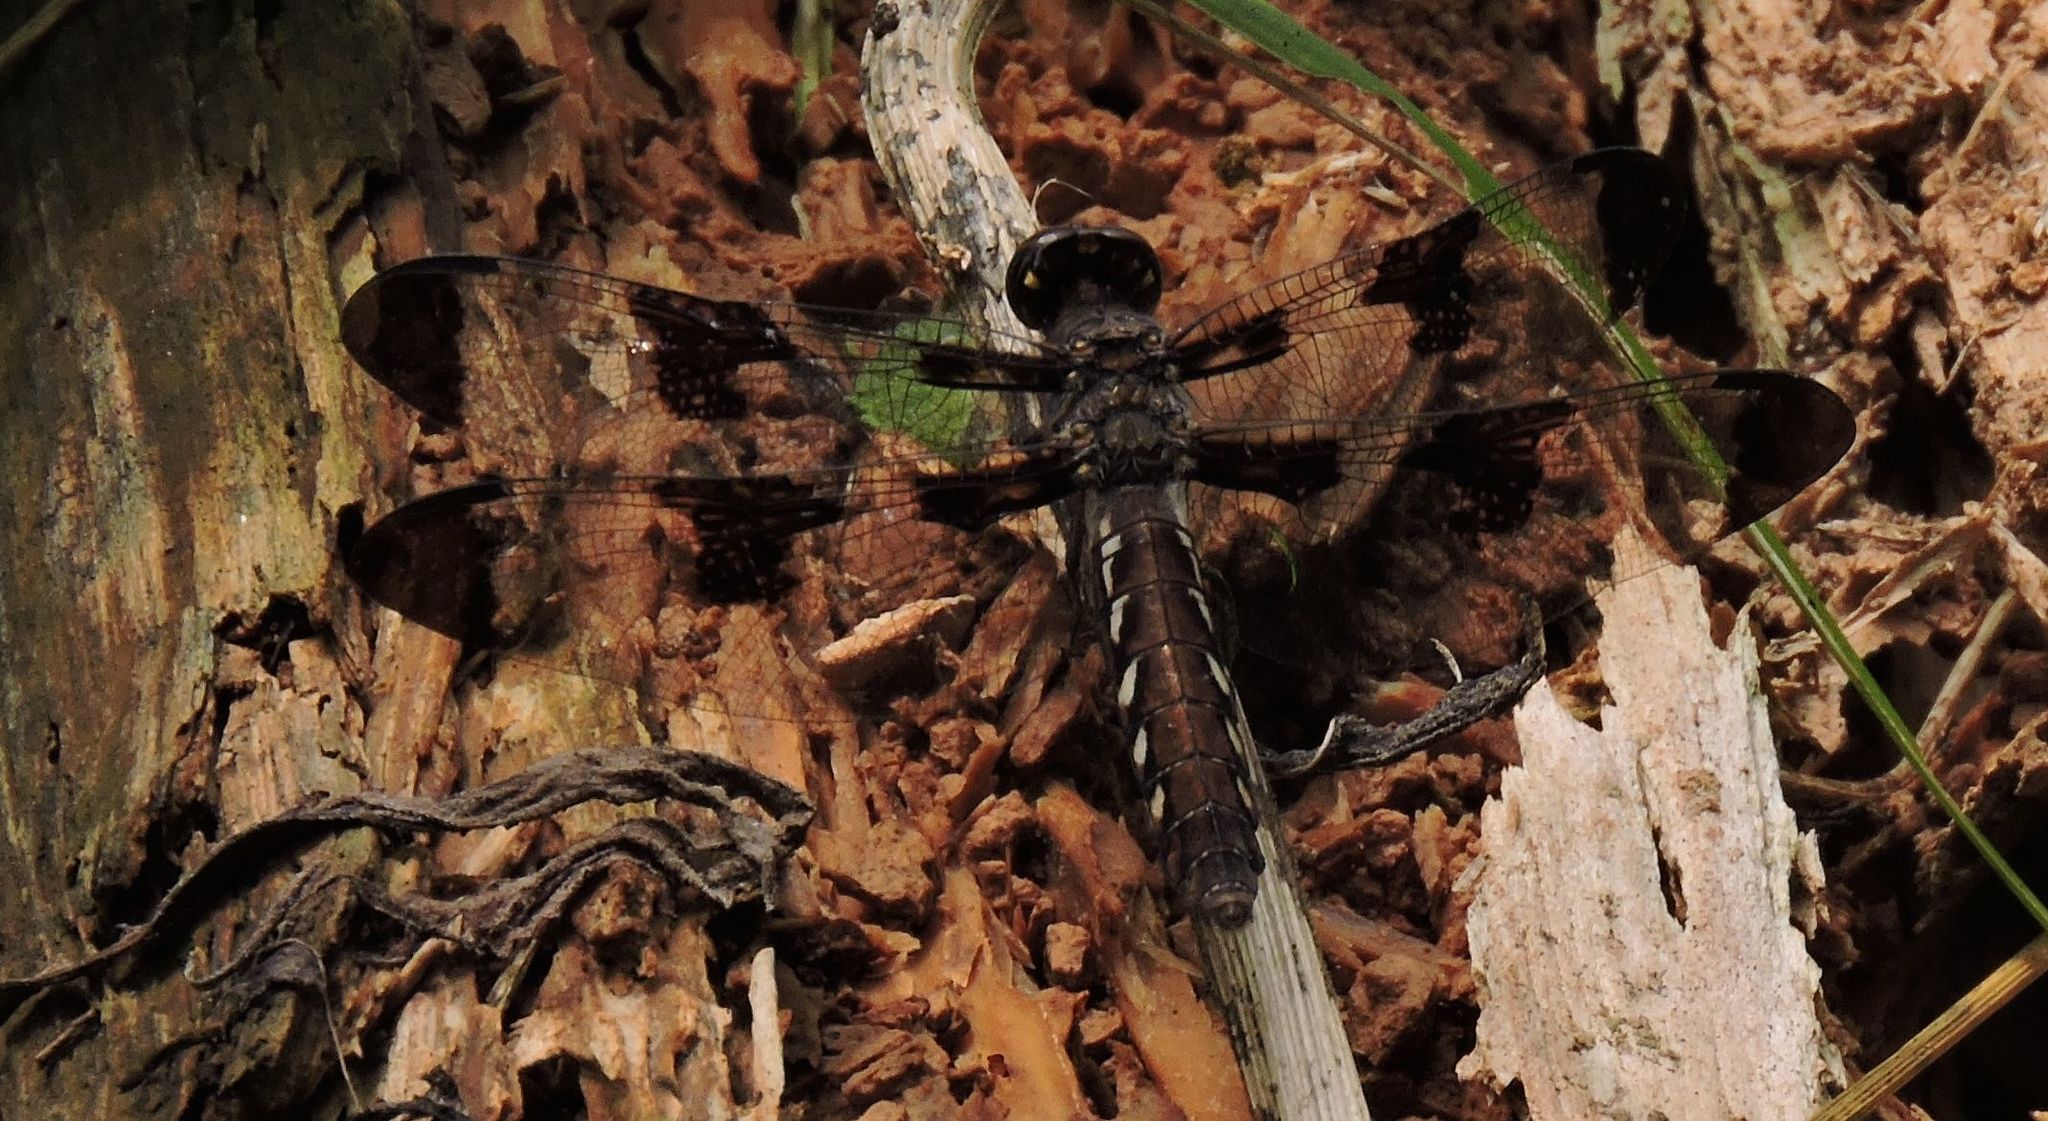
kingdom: Animalia
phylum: Arthropoda
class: Insecta
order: Odonata
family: Libellulidae
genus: Plathemis
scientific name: Plathemis lydia
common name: Common whitetail
